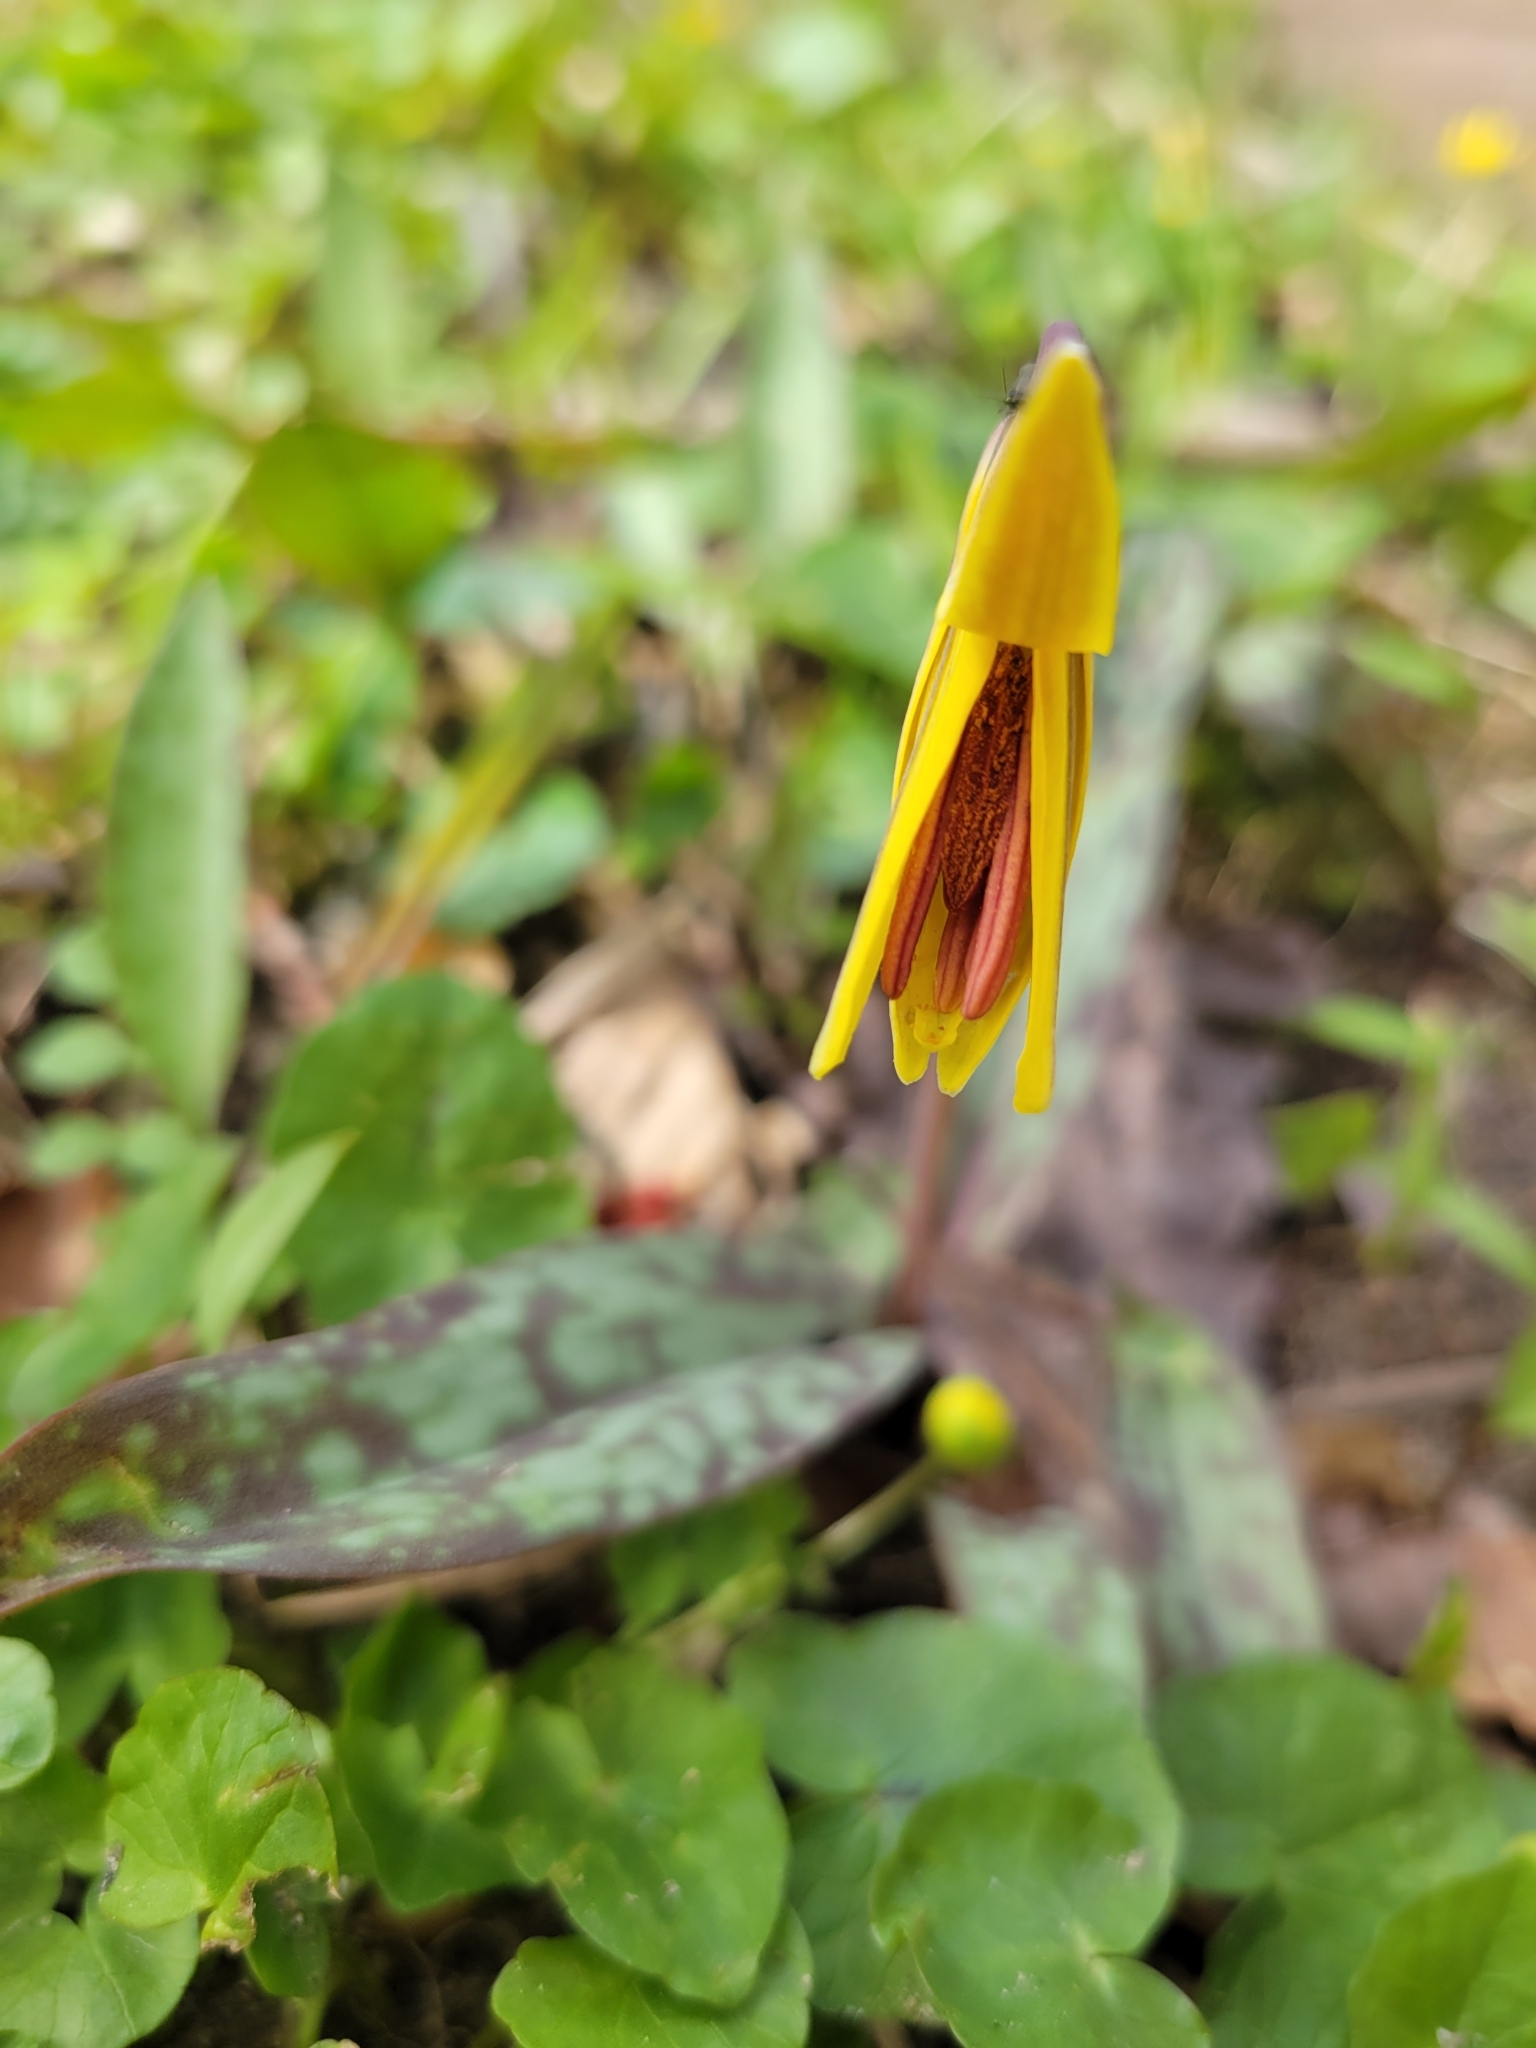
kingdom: Plantae
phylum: Tracheophyta
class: Liliopsida
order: Liliales
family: Liliaceae
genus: Erythronium
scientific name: Erythronium americanum
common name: Yellow adder's-tongue
